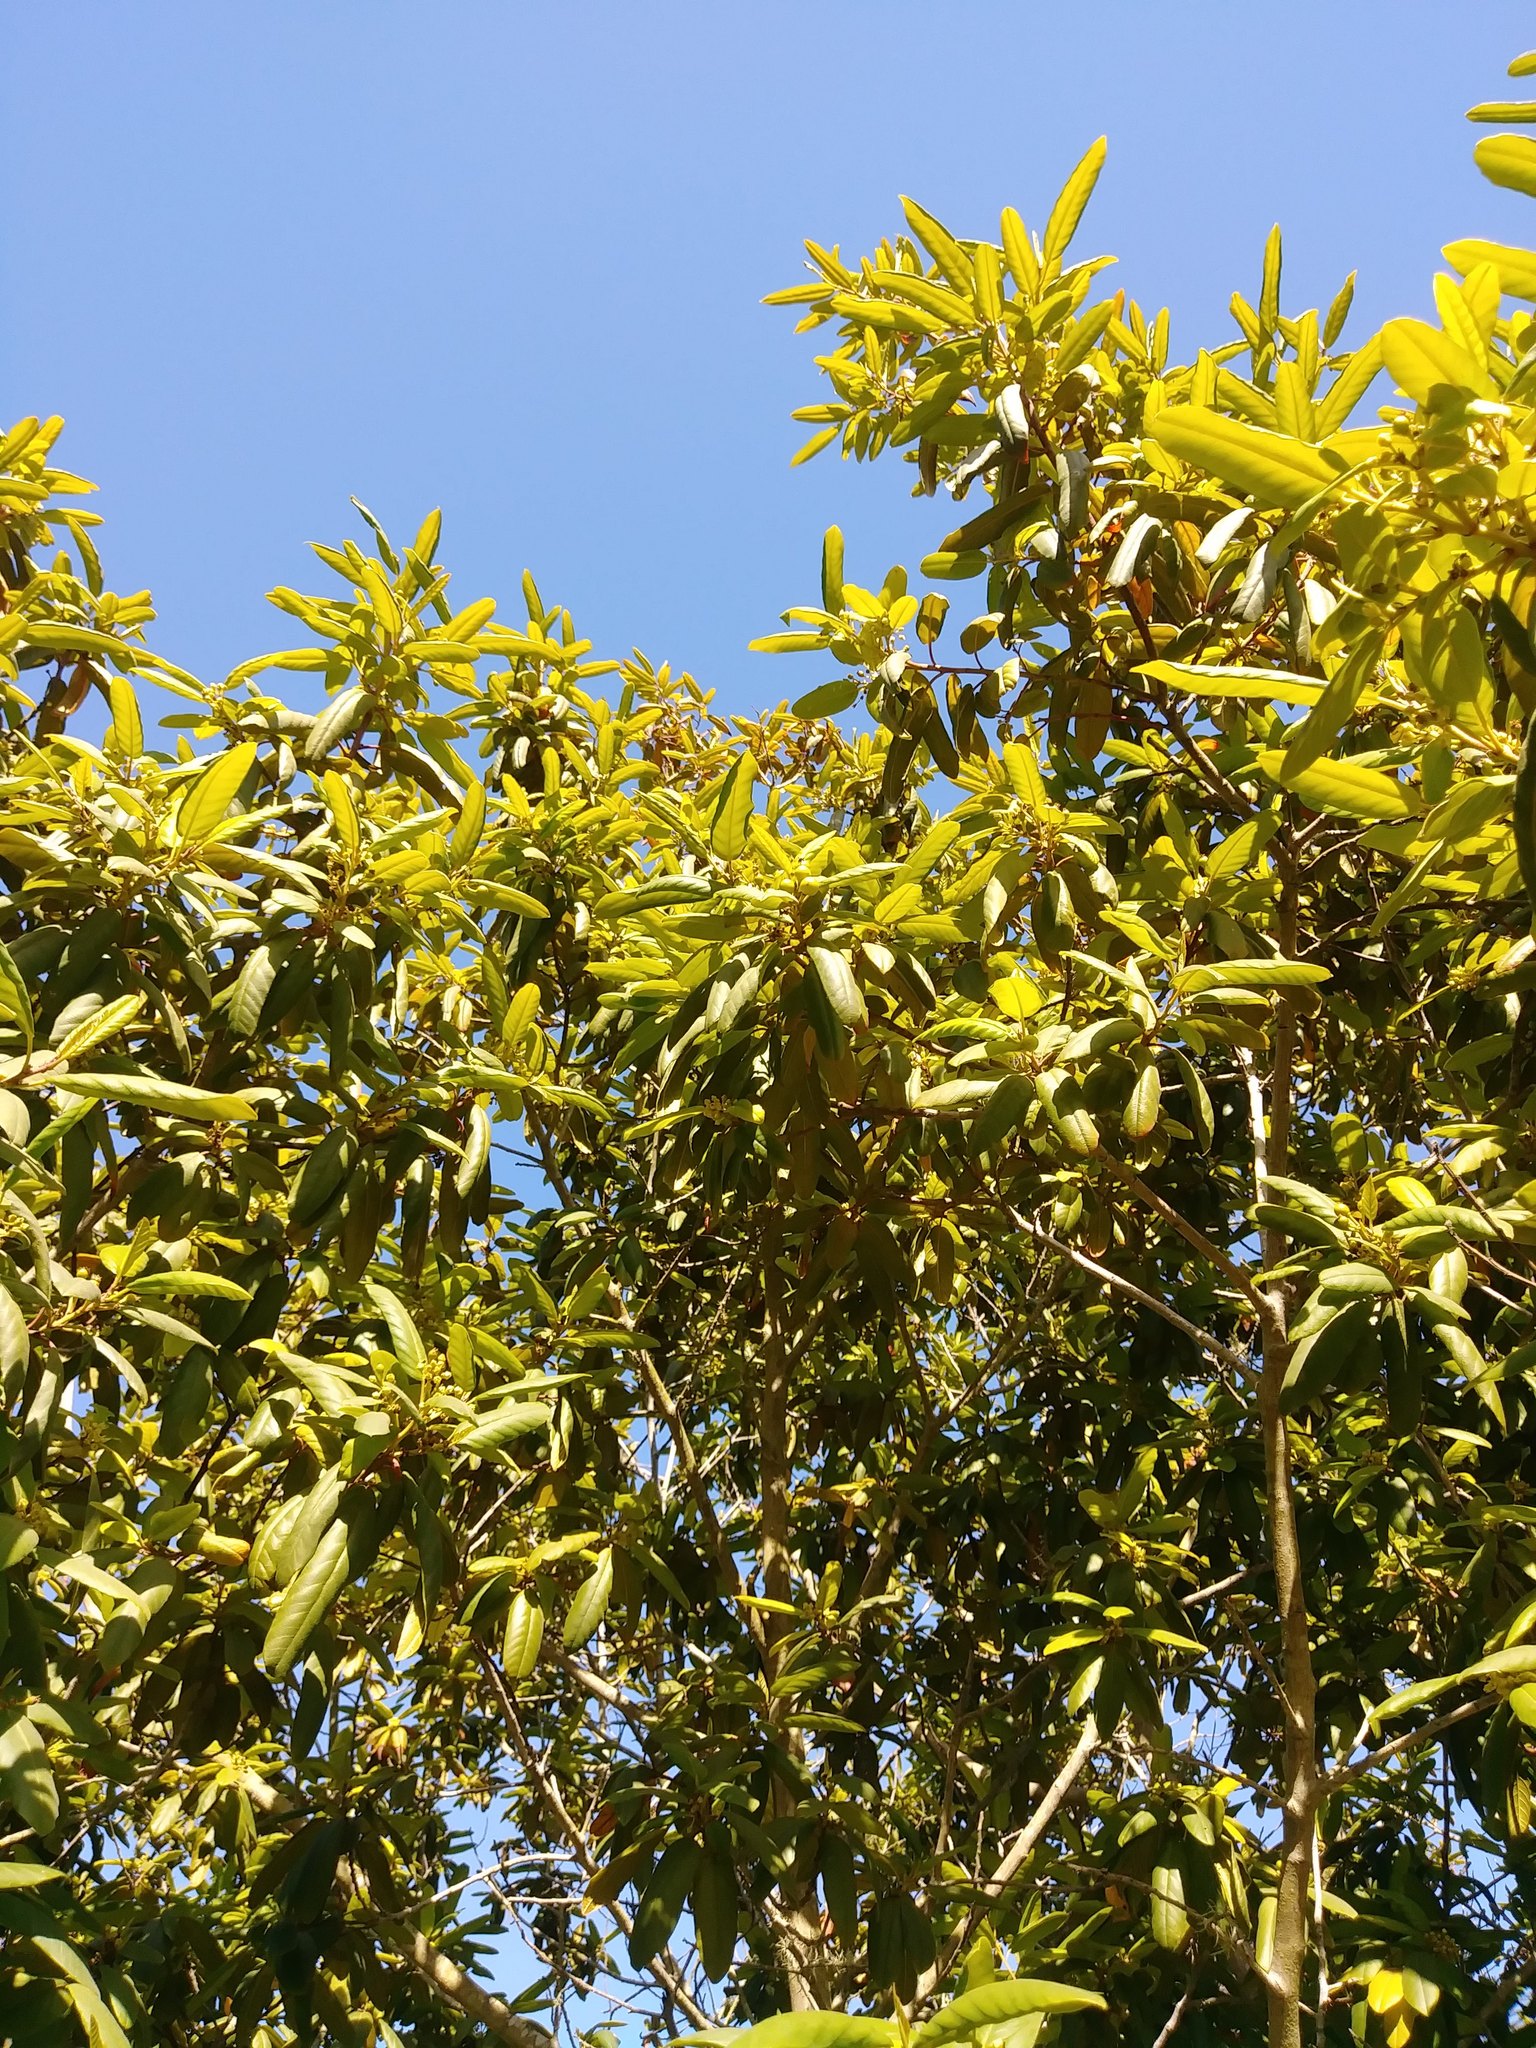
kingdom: Plantae
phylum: Tracheophyta
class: Magnoliopsida
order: Rosales
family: Rhamnaceae
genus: Frangula
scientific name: Frangula californica
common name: California buckthorn
